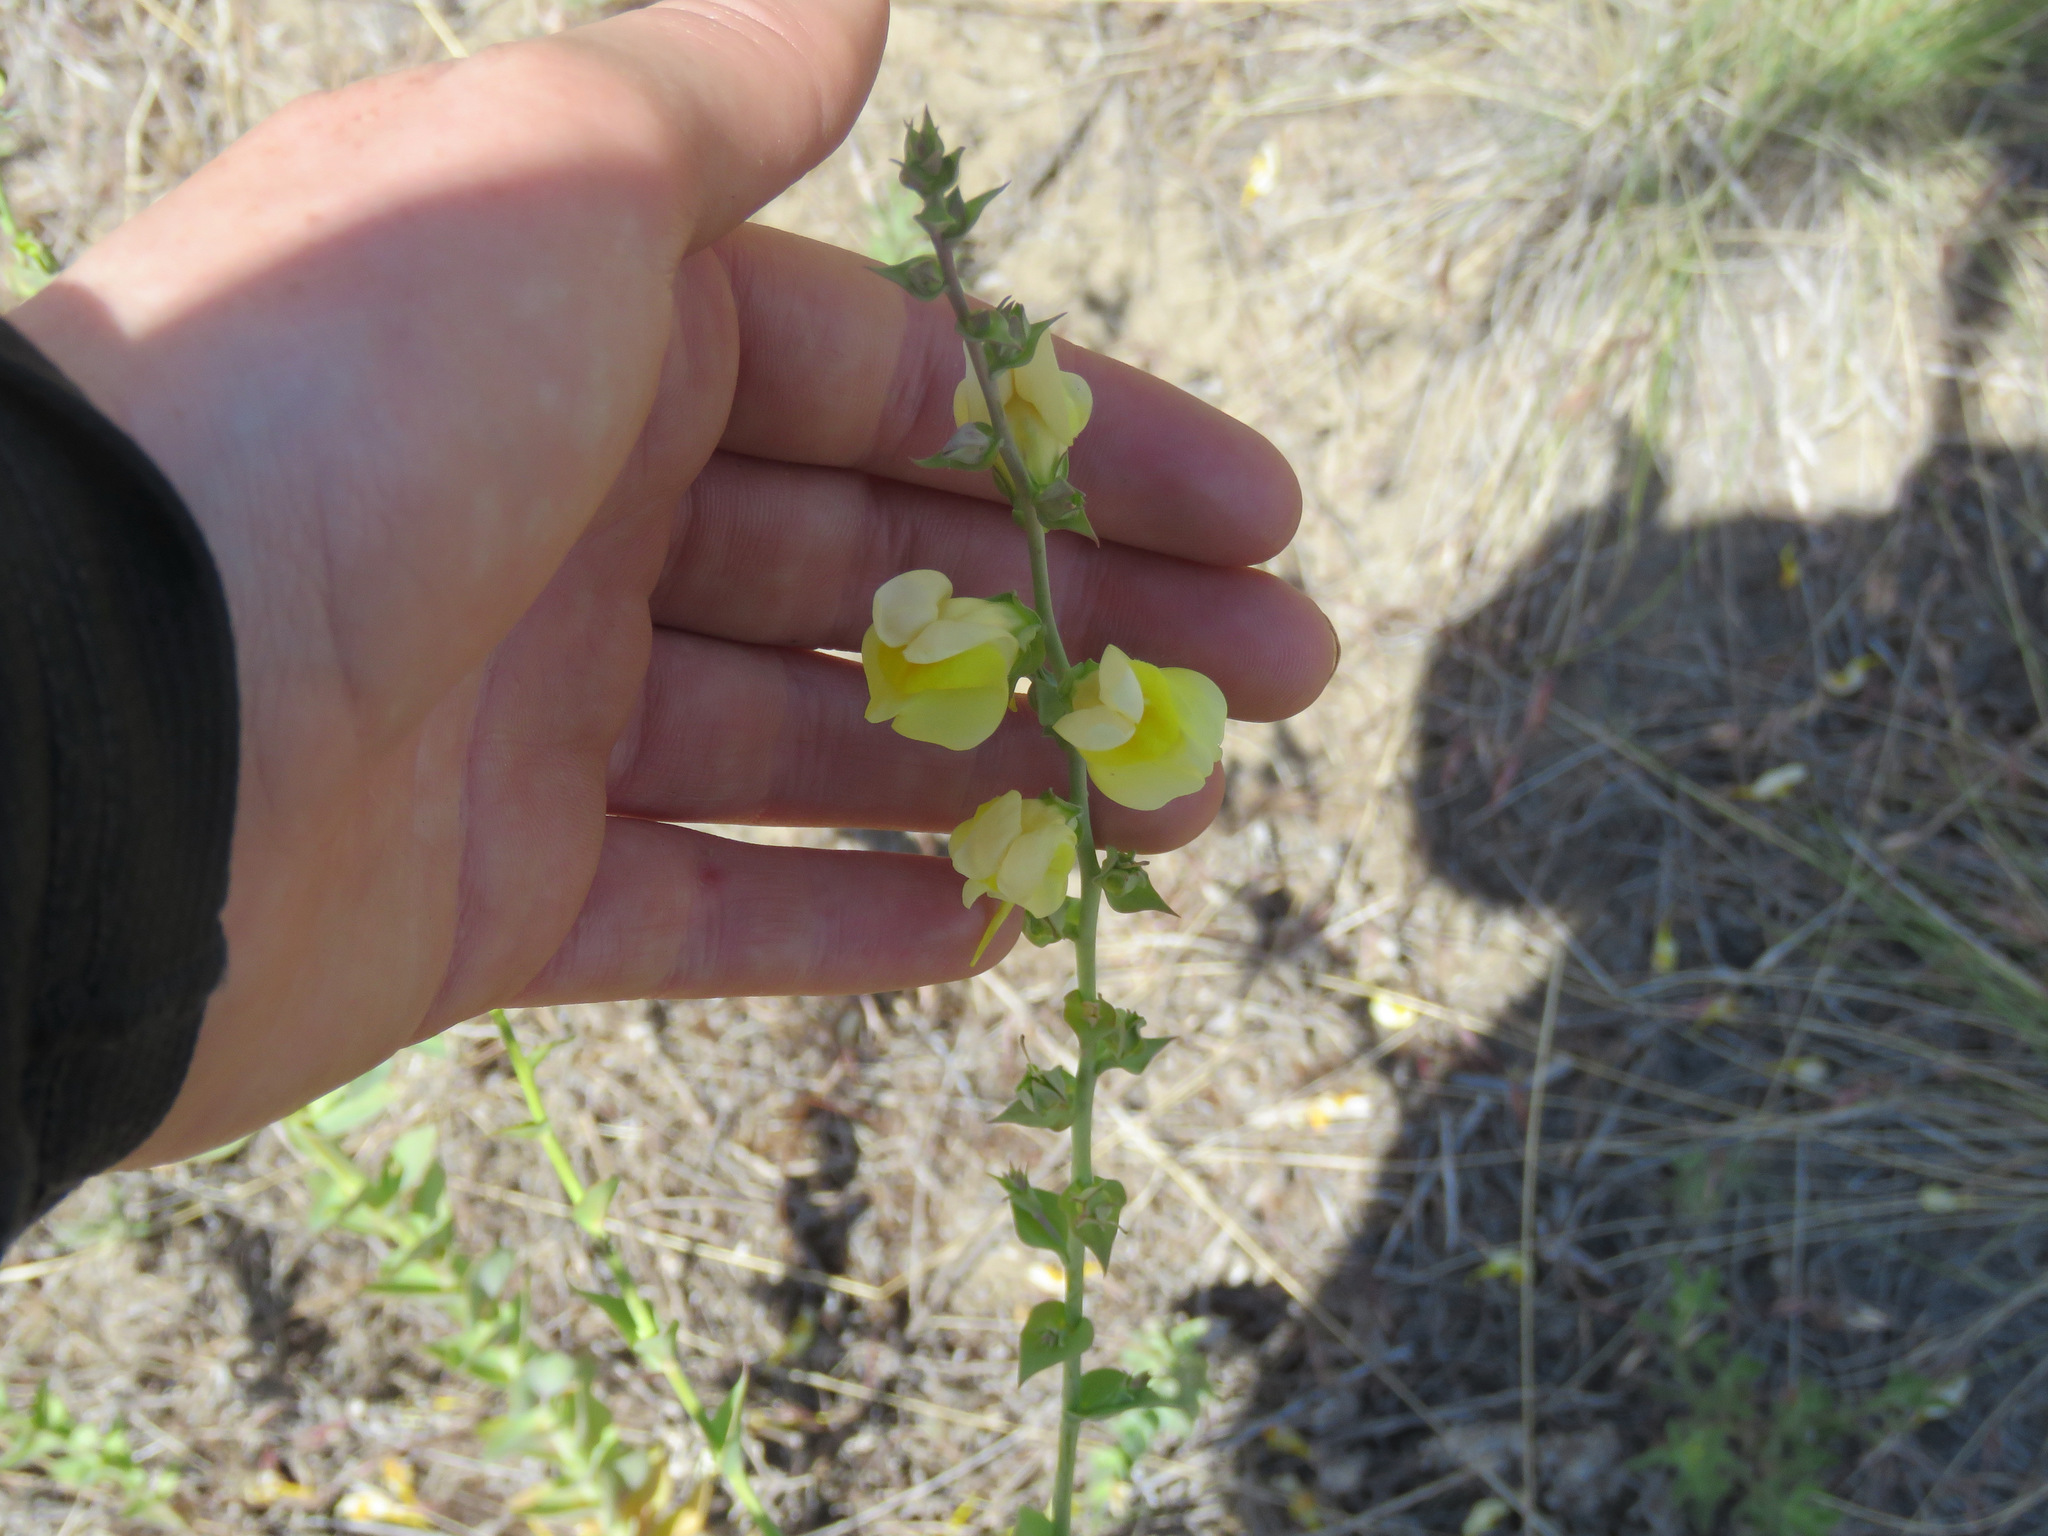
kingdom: Plantae
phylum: Tracheophyta
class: Magnoliopsida
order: Lamiales
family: Plantaginaceae
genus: Linaria
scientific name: Linaria dalmatica
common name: Dalmatian toadflax
